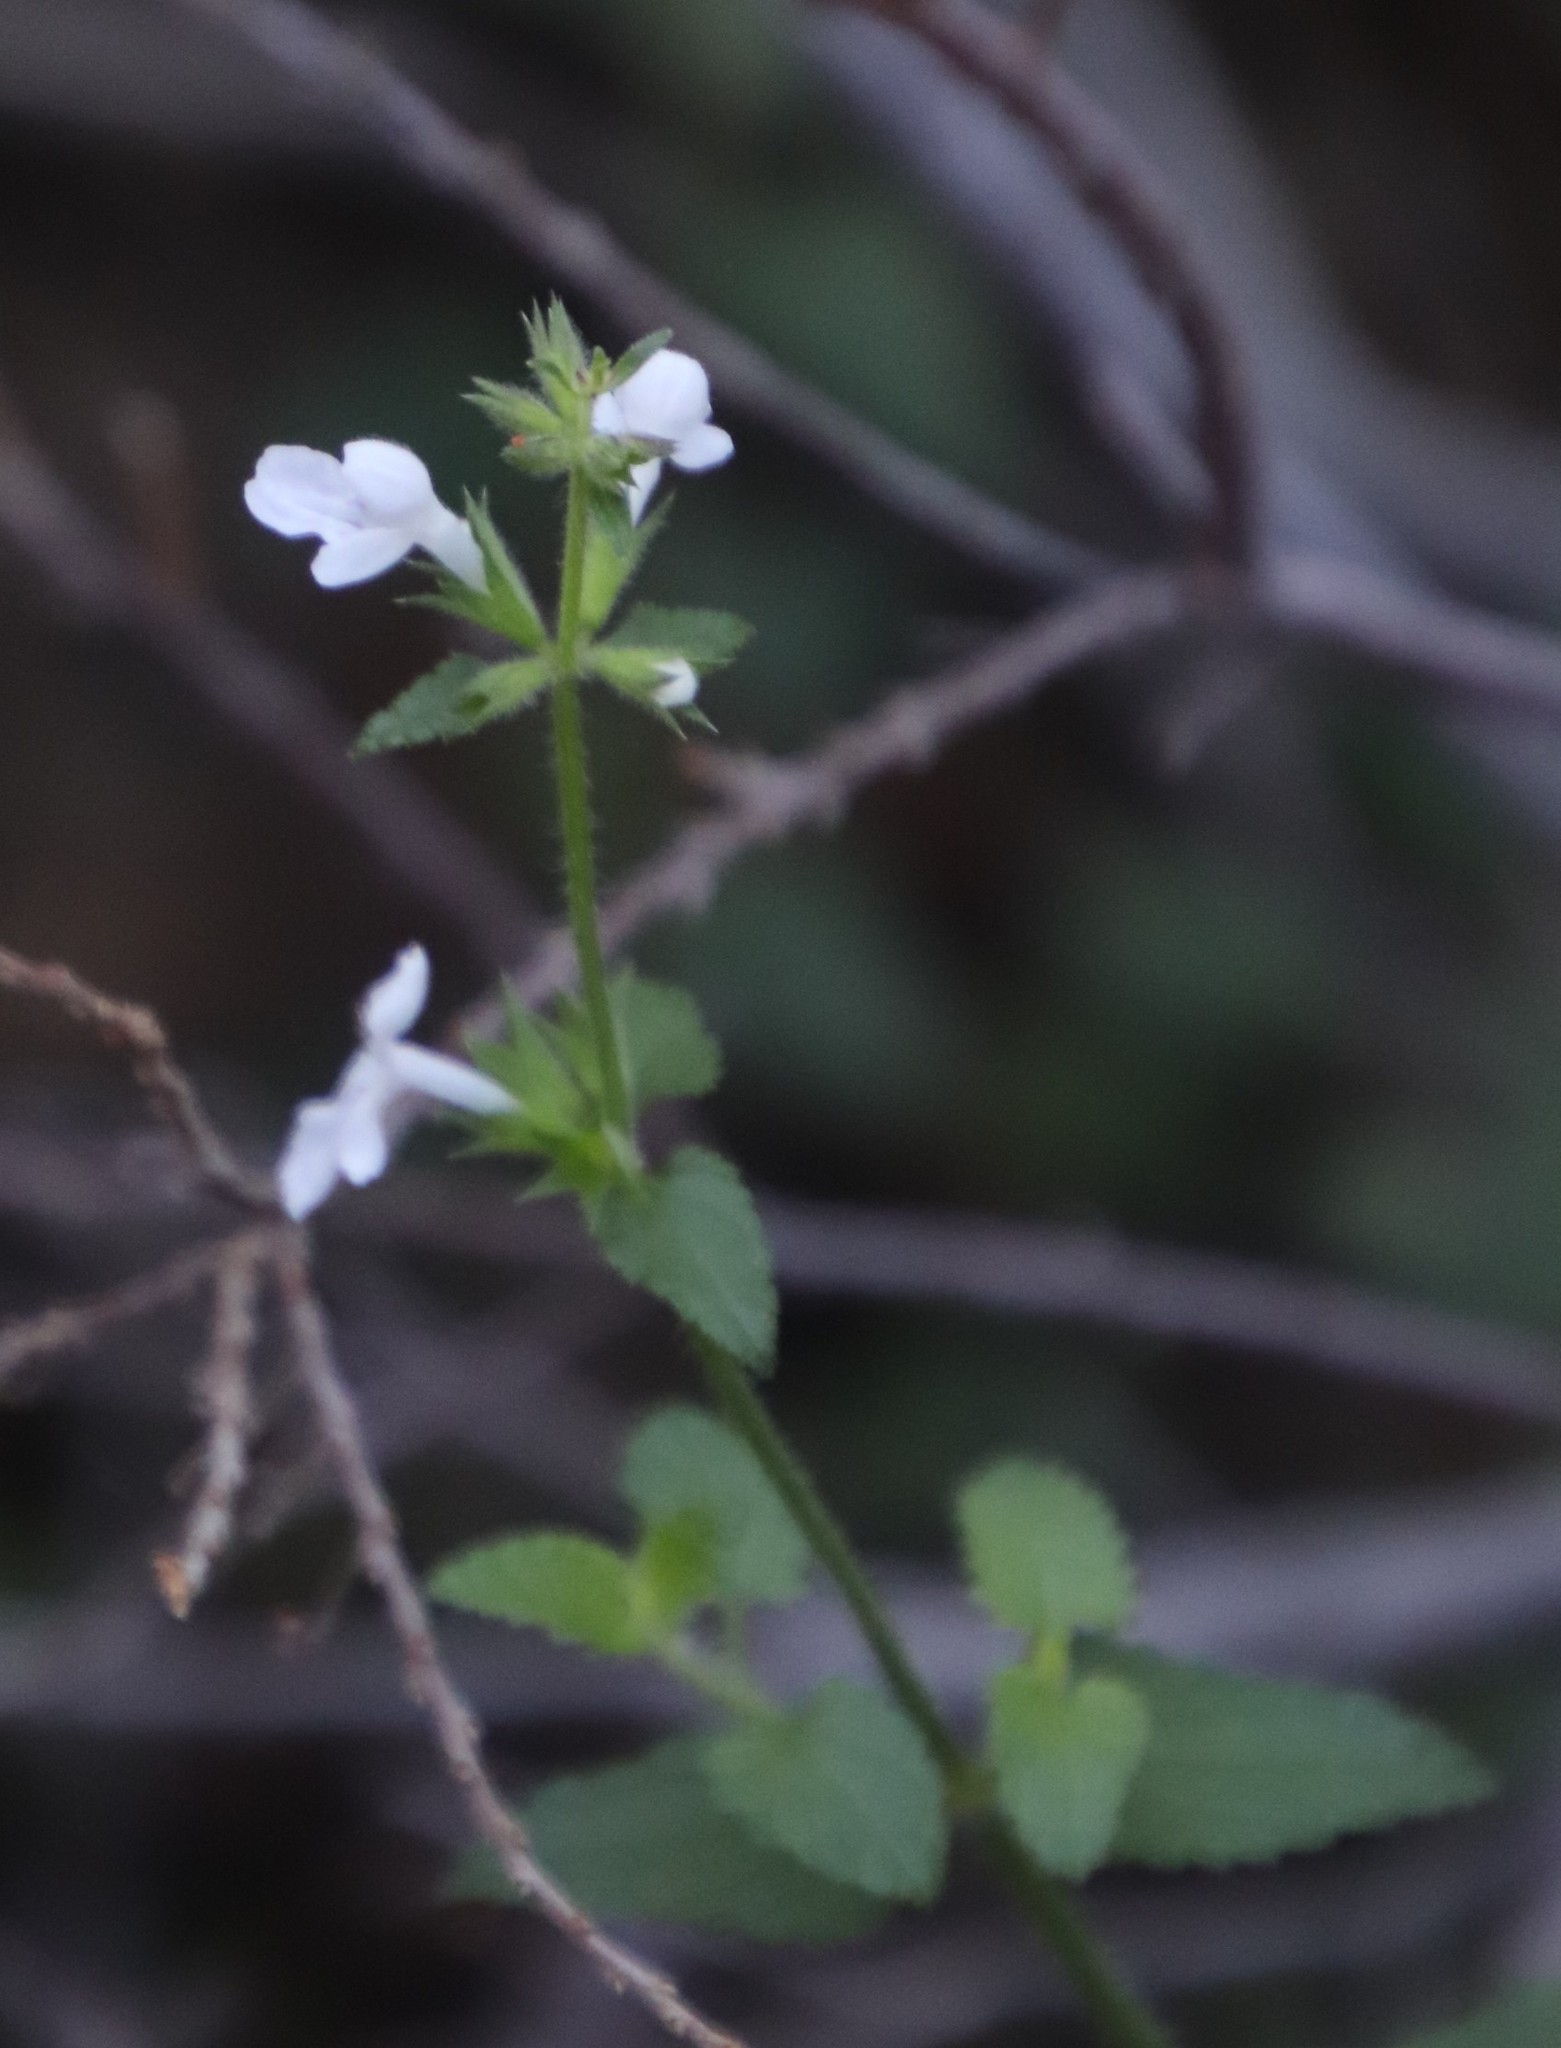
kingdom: Plantae
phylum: Tracheophyta
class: Magnoliopsida
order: Lamiales
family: Lamiaceae
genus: Stachys
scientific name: Stachys aethiopica
